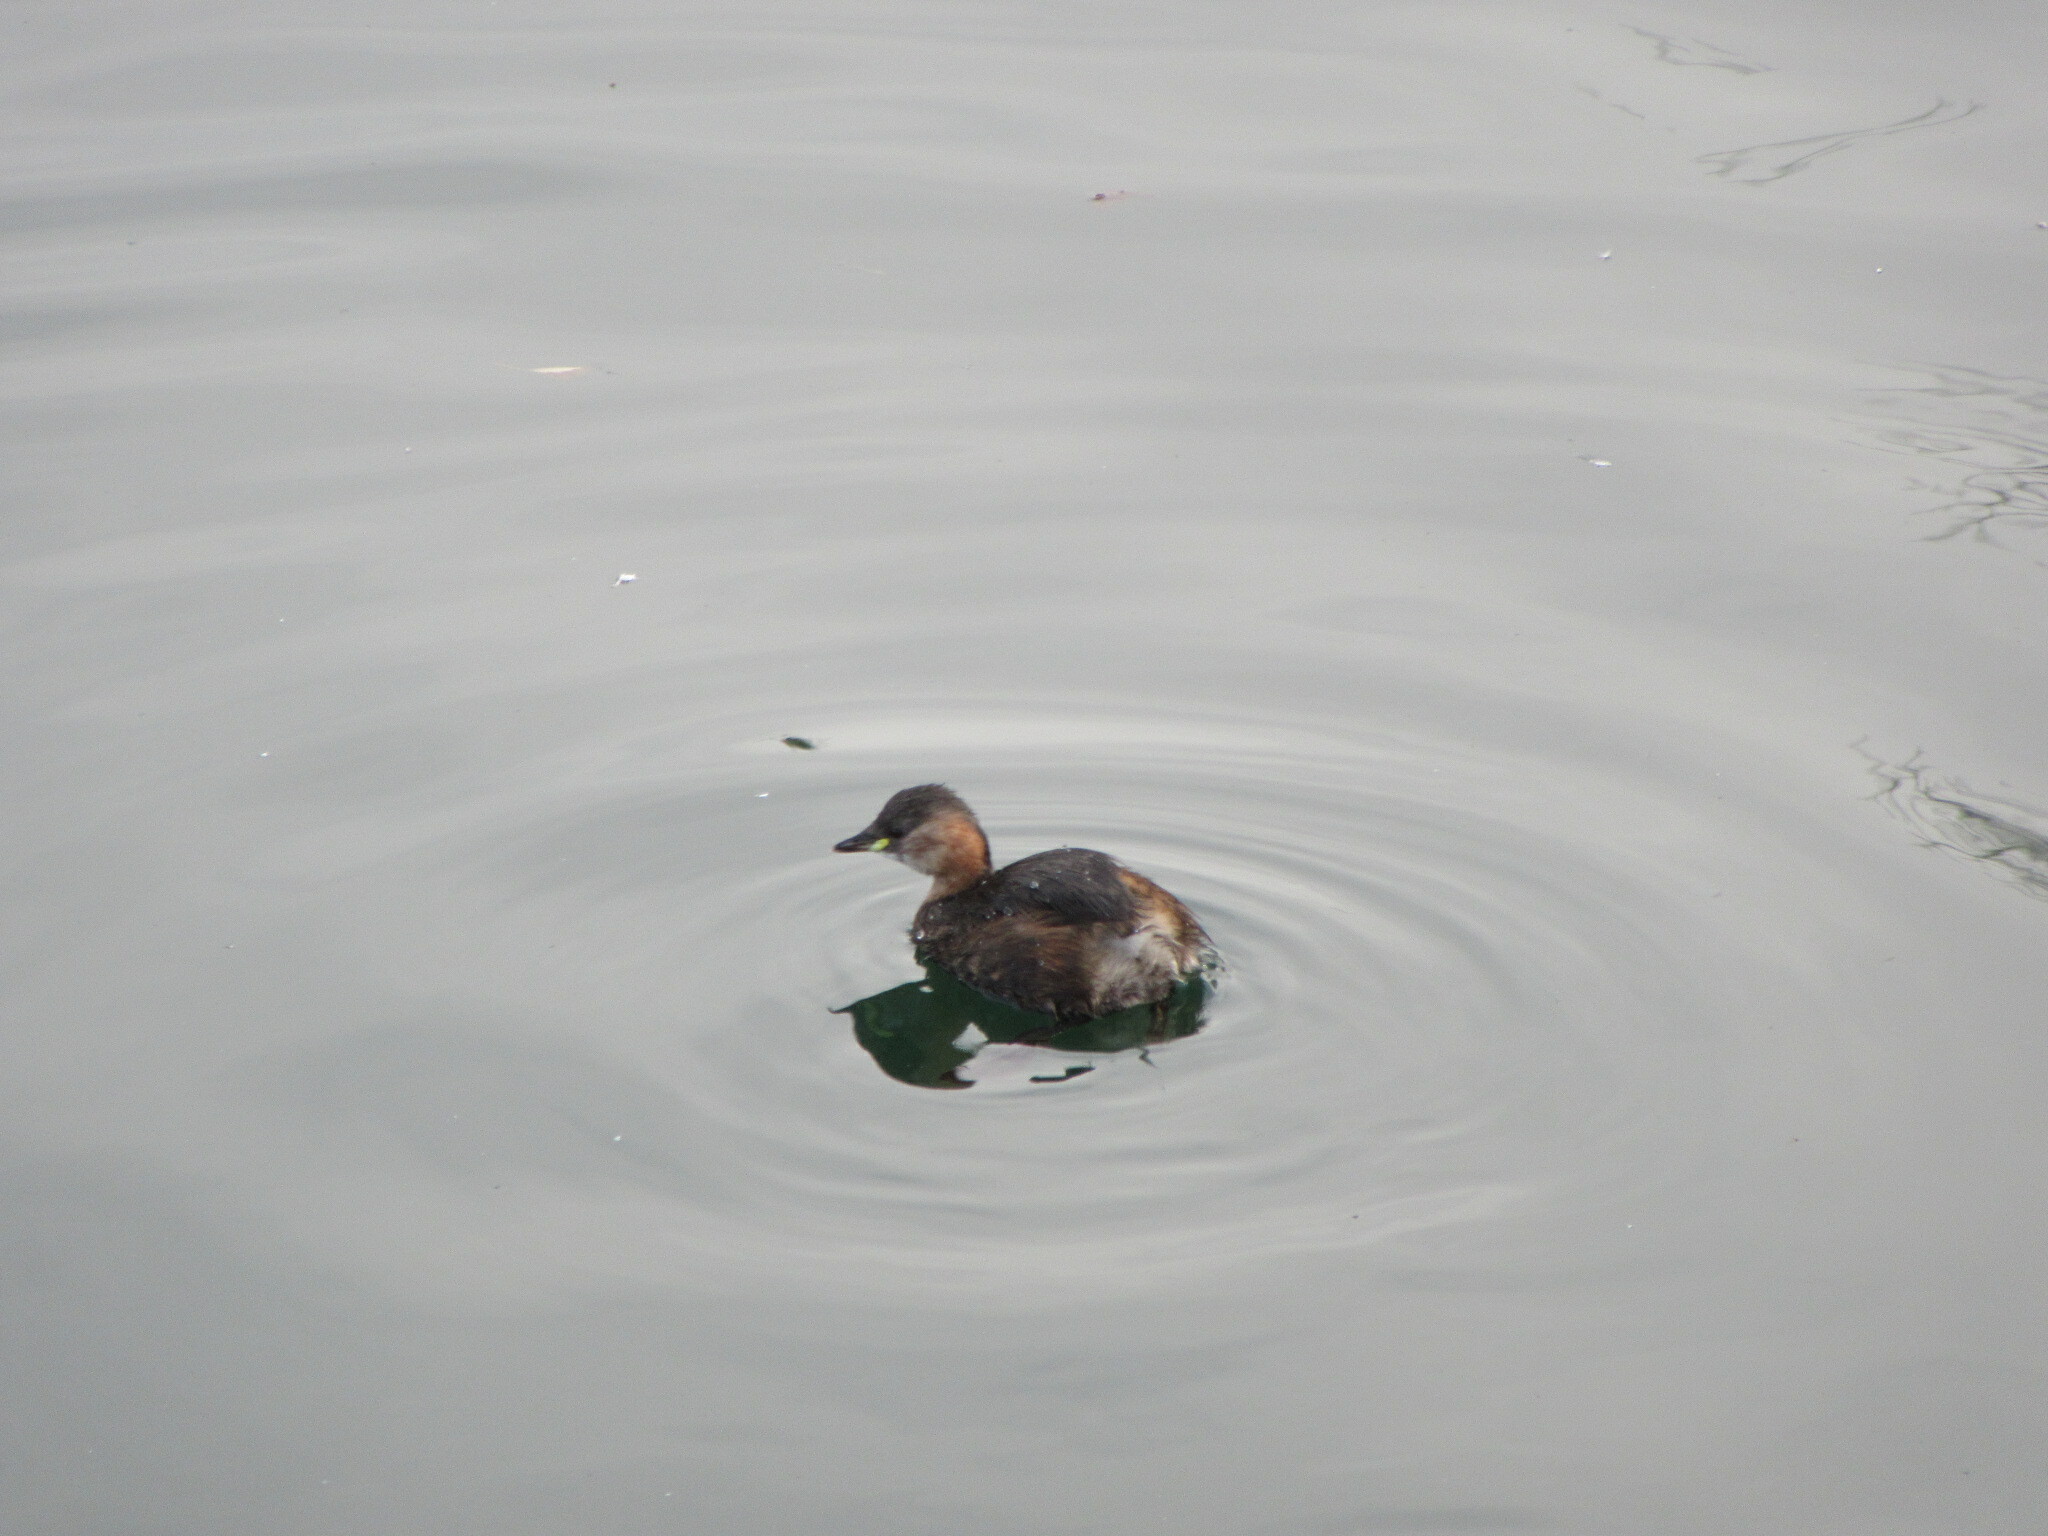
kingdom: Animalia
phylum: Chordata
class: Aves
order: Podicipediformes
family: Podicipedidae
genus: Tachybaptus
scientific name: Tachybaptus ruficollis
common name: Little grebe
